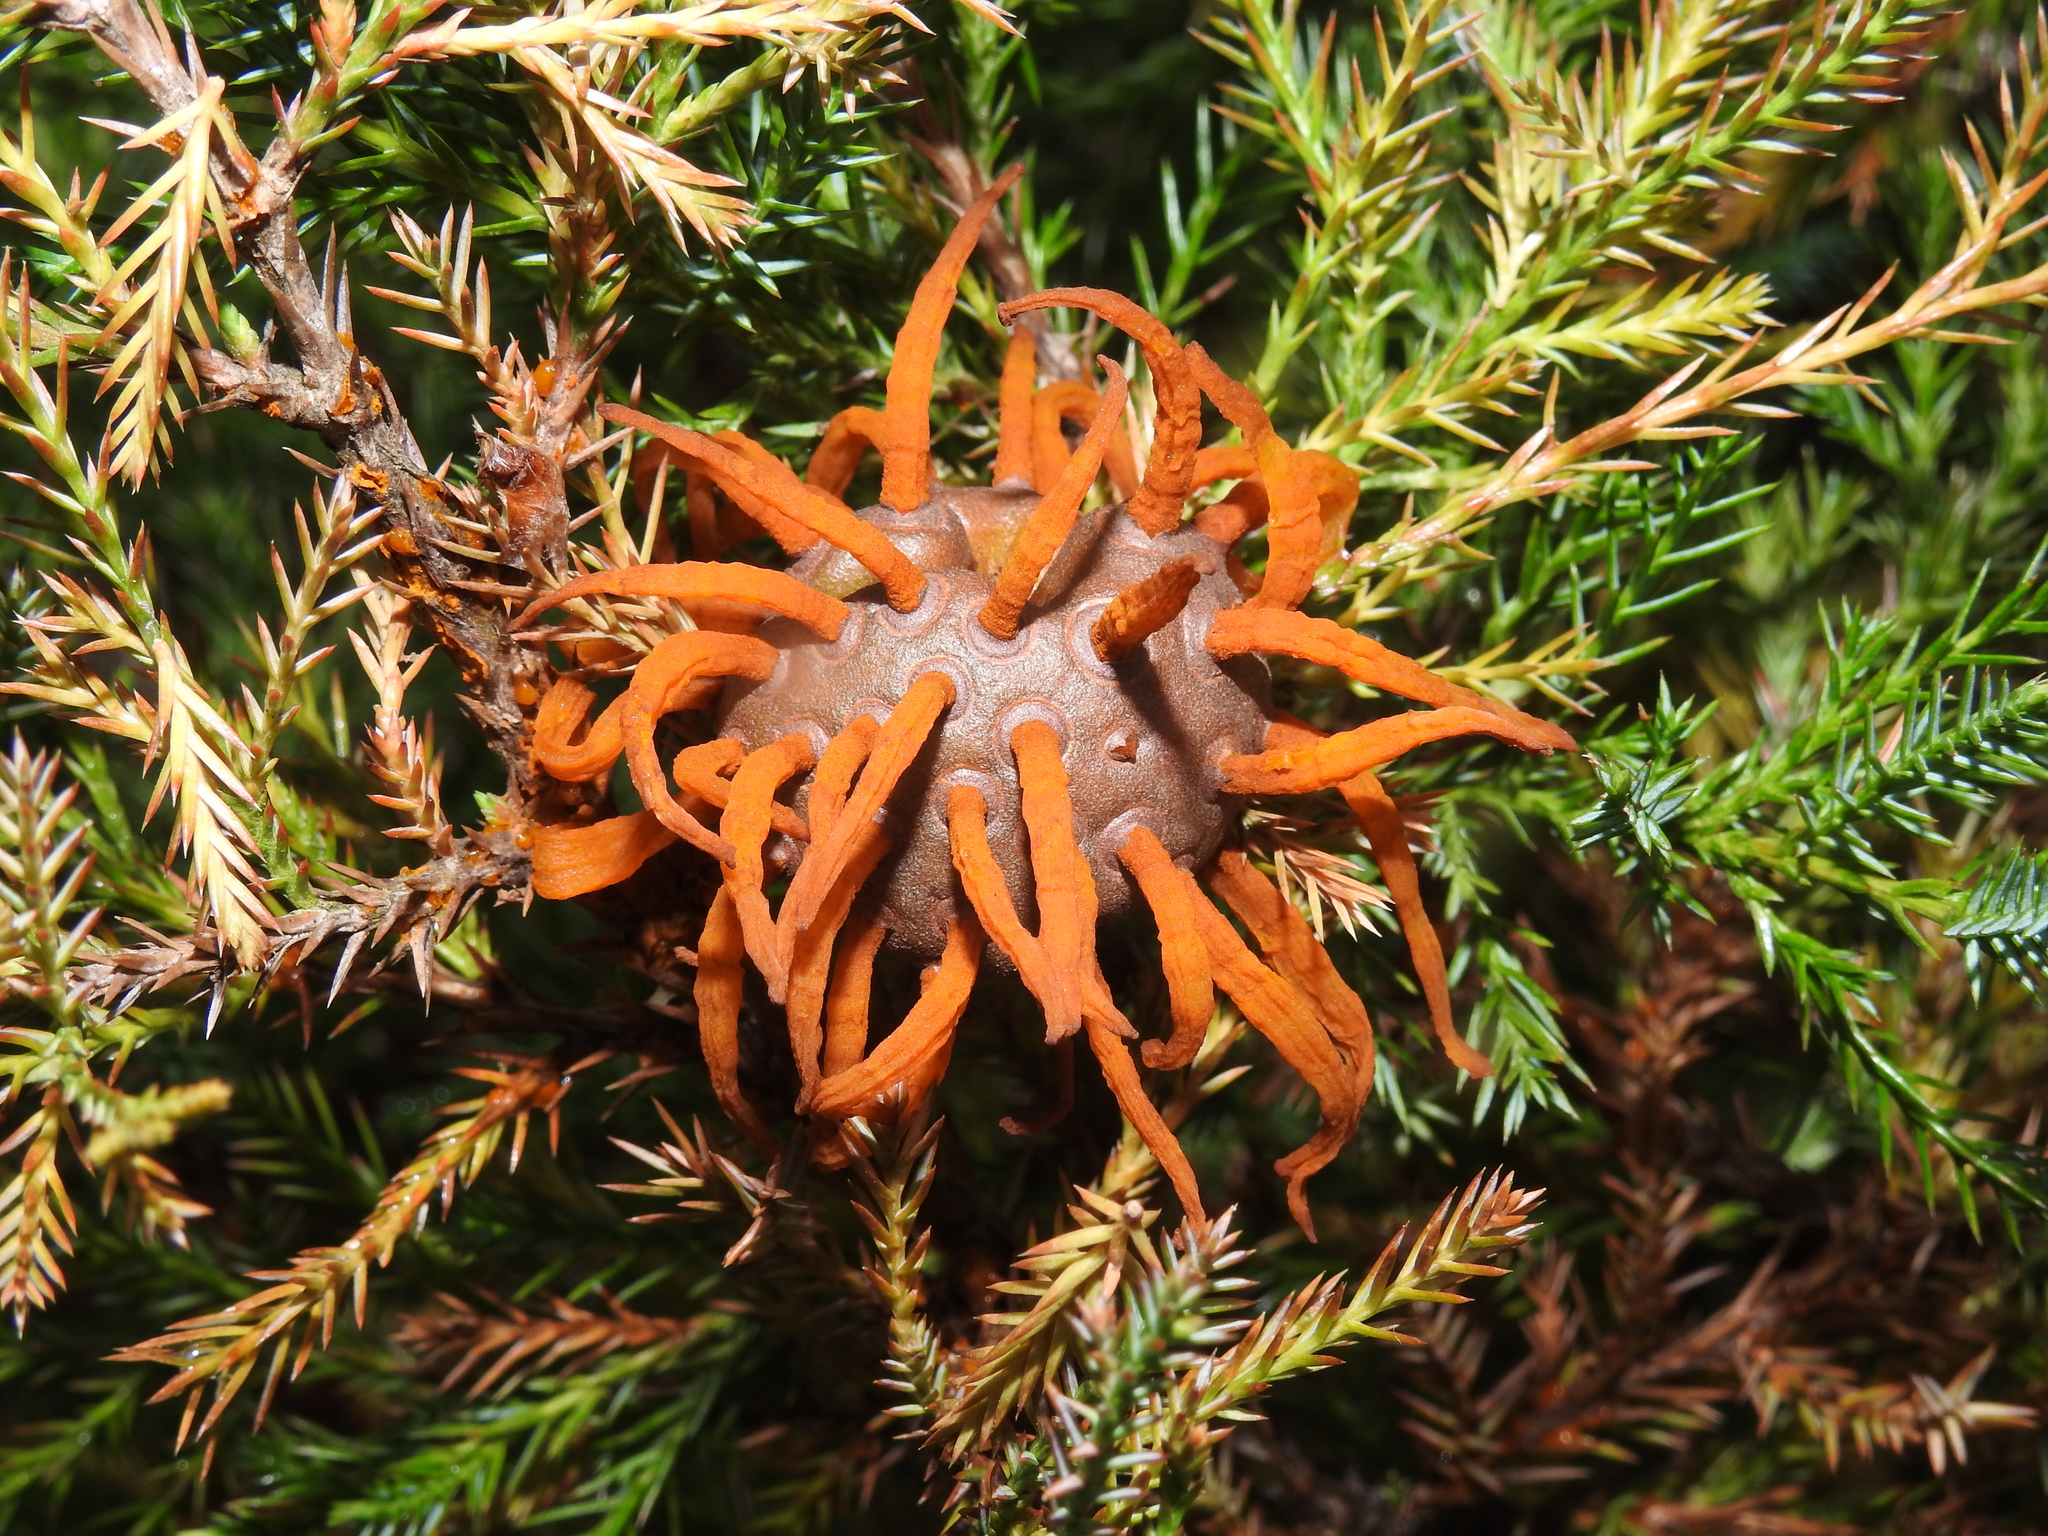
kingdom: Fungi
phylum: Basidiomycota
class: Pucciniomycetes
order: Pucciniales
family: Gymnosporangiaceae
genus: Gymnosporangium
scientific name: Gymnosporangium juniperi-virginianae
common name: Juniper-apple rust
